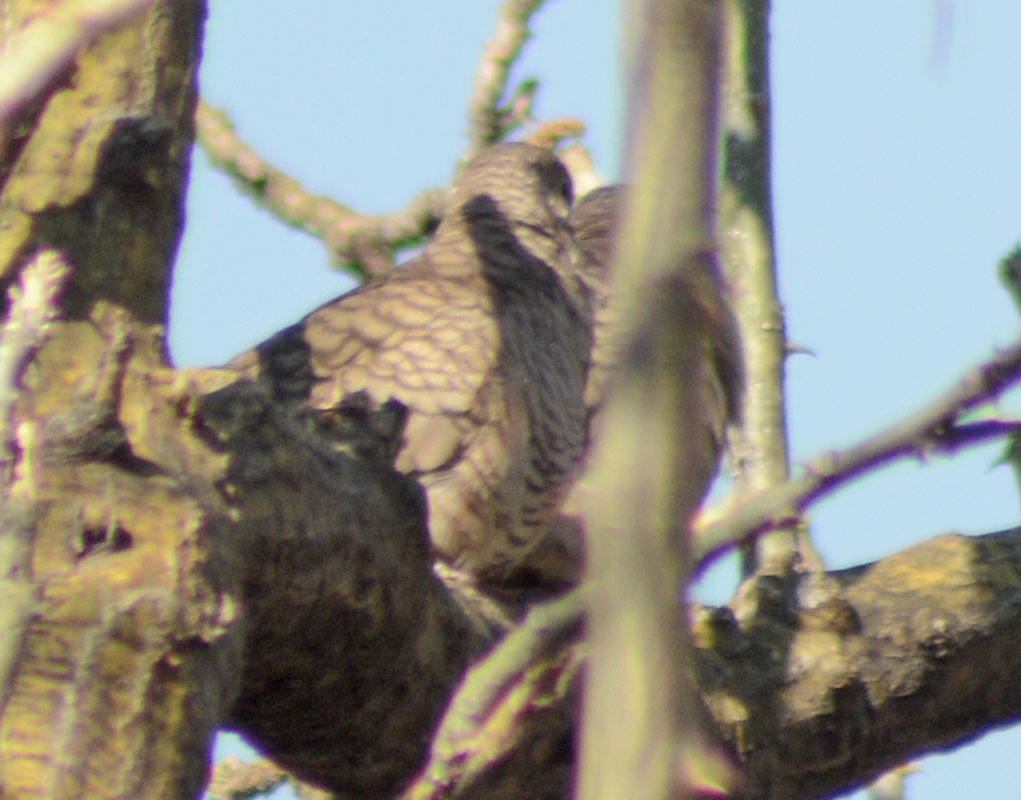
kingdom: Animalia
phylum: Chordata
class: Aves
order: Columbiformes
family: Columbidae
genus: Columbina
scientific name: Columbina inca
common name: Inca dove
